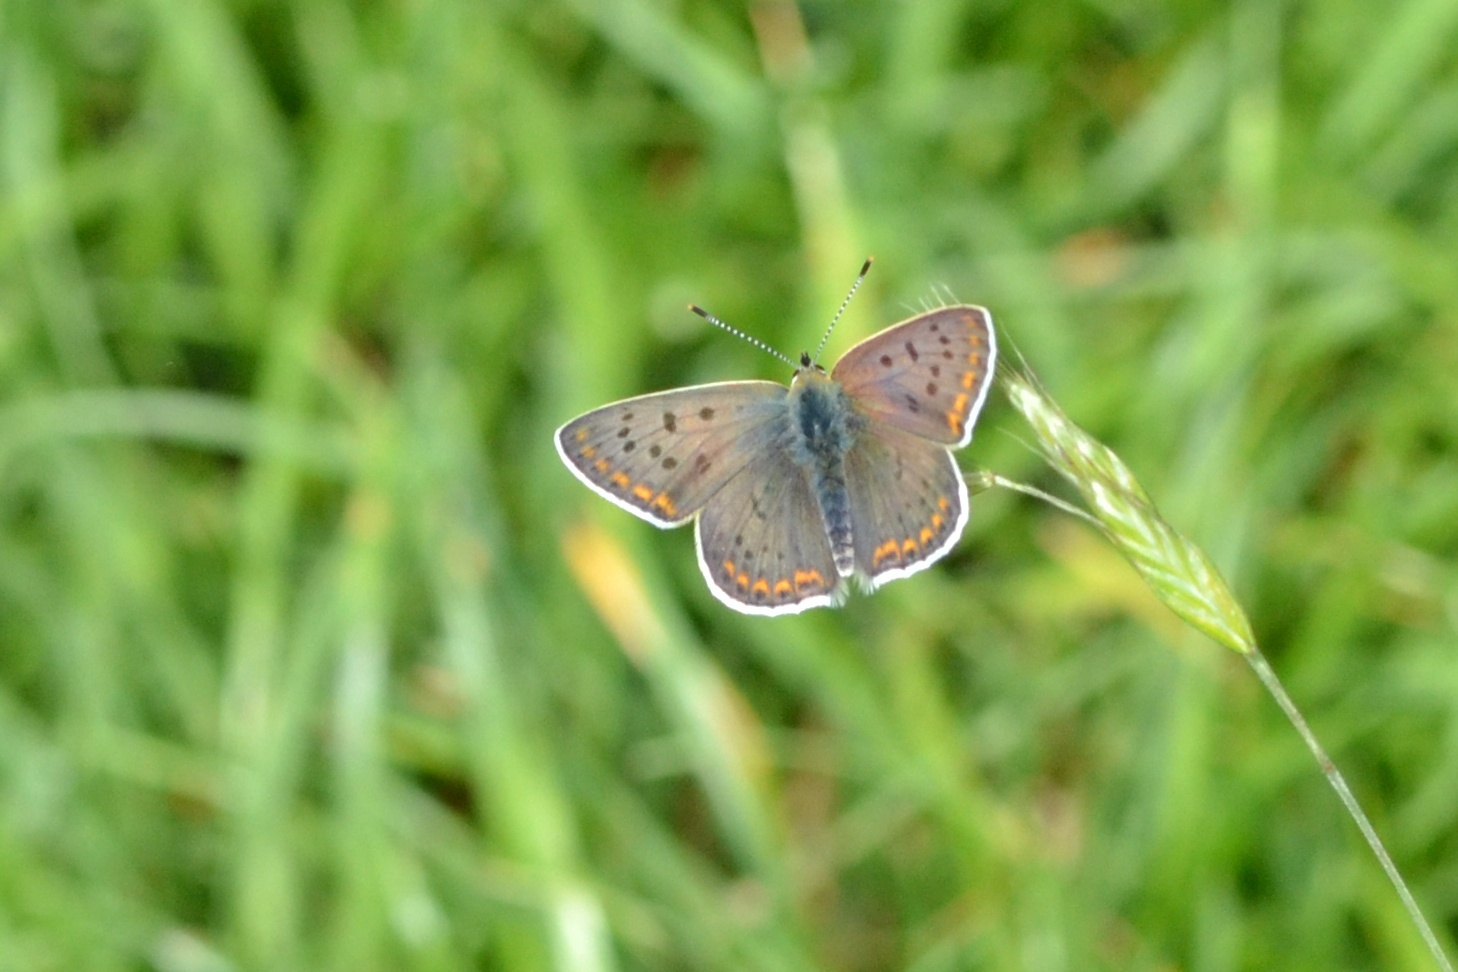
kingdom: Animalia
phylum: Arthropoda
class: Insecta
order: Lepidoptera
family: Lycaenidae
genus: Loweia
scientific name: Loweia tityrus
